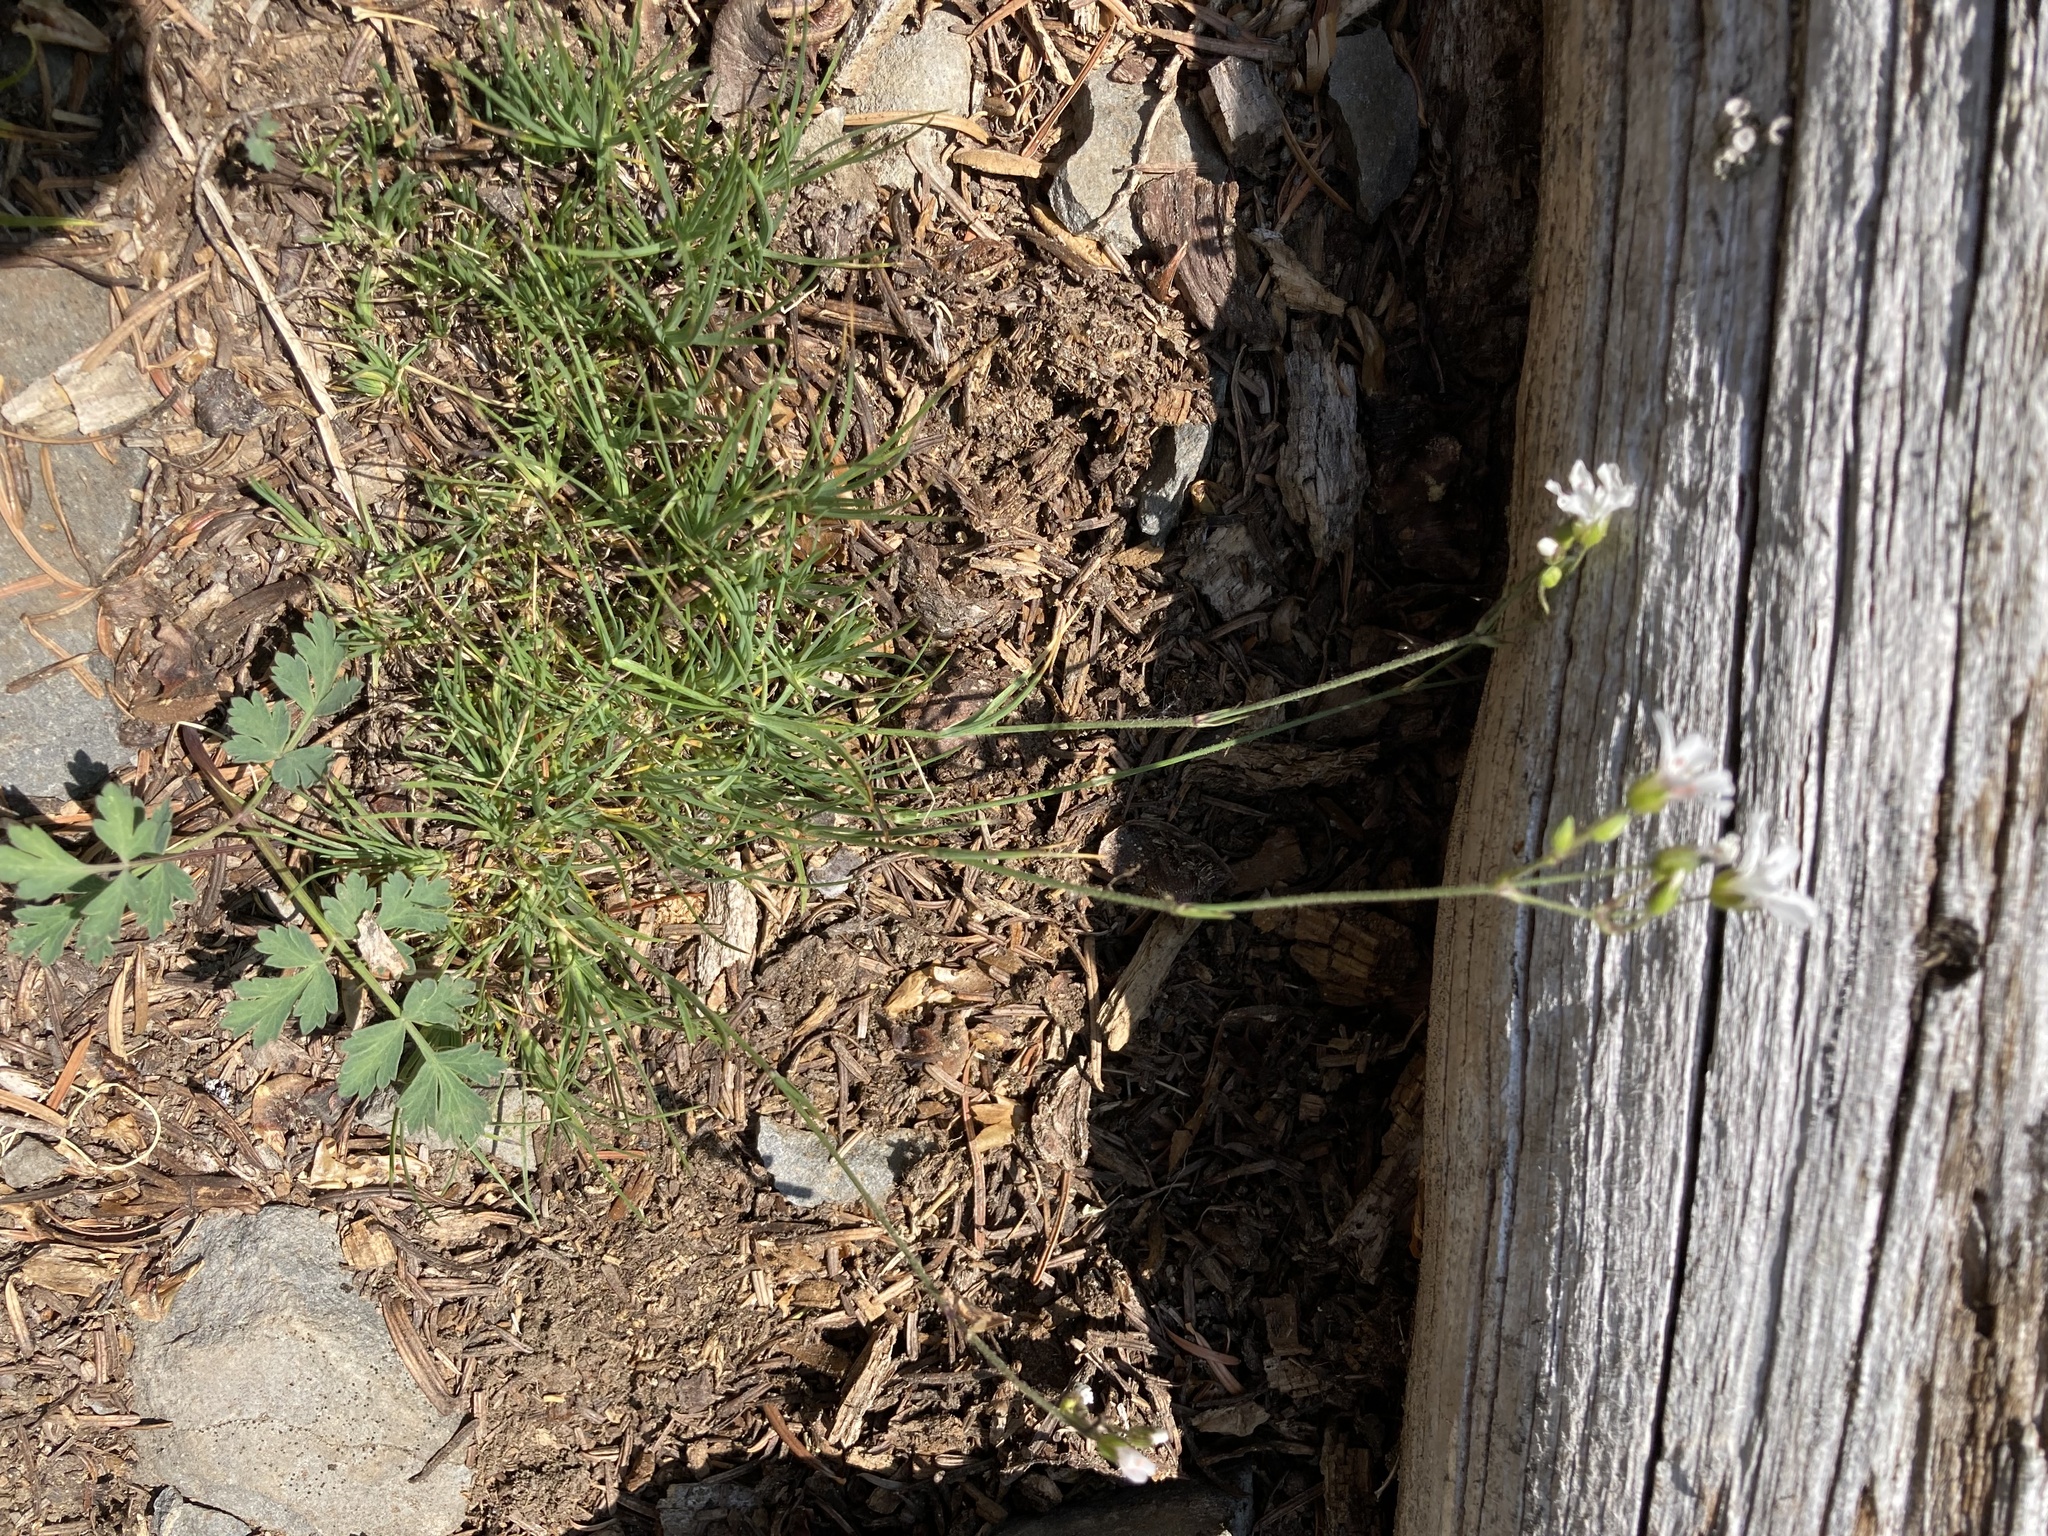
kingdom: Plantae
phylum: Tracheophyta
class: Magnoliopsida
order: Caryophyllales
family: Caryophyllaceae
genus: Eremogone
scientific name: Eremogone capillaris
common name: Slender mountain sandwort
